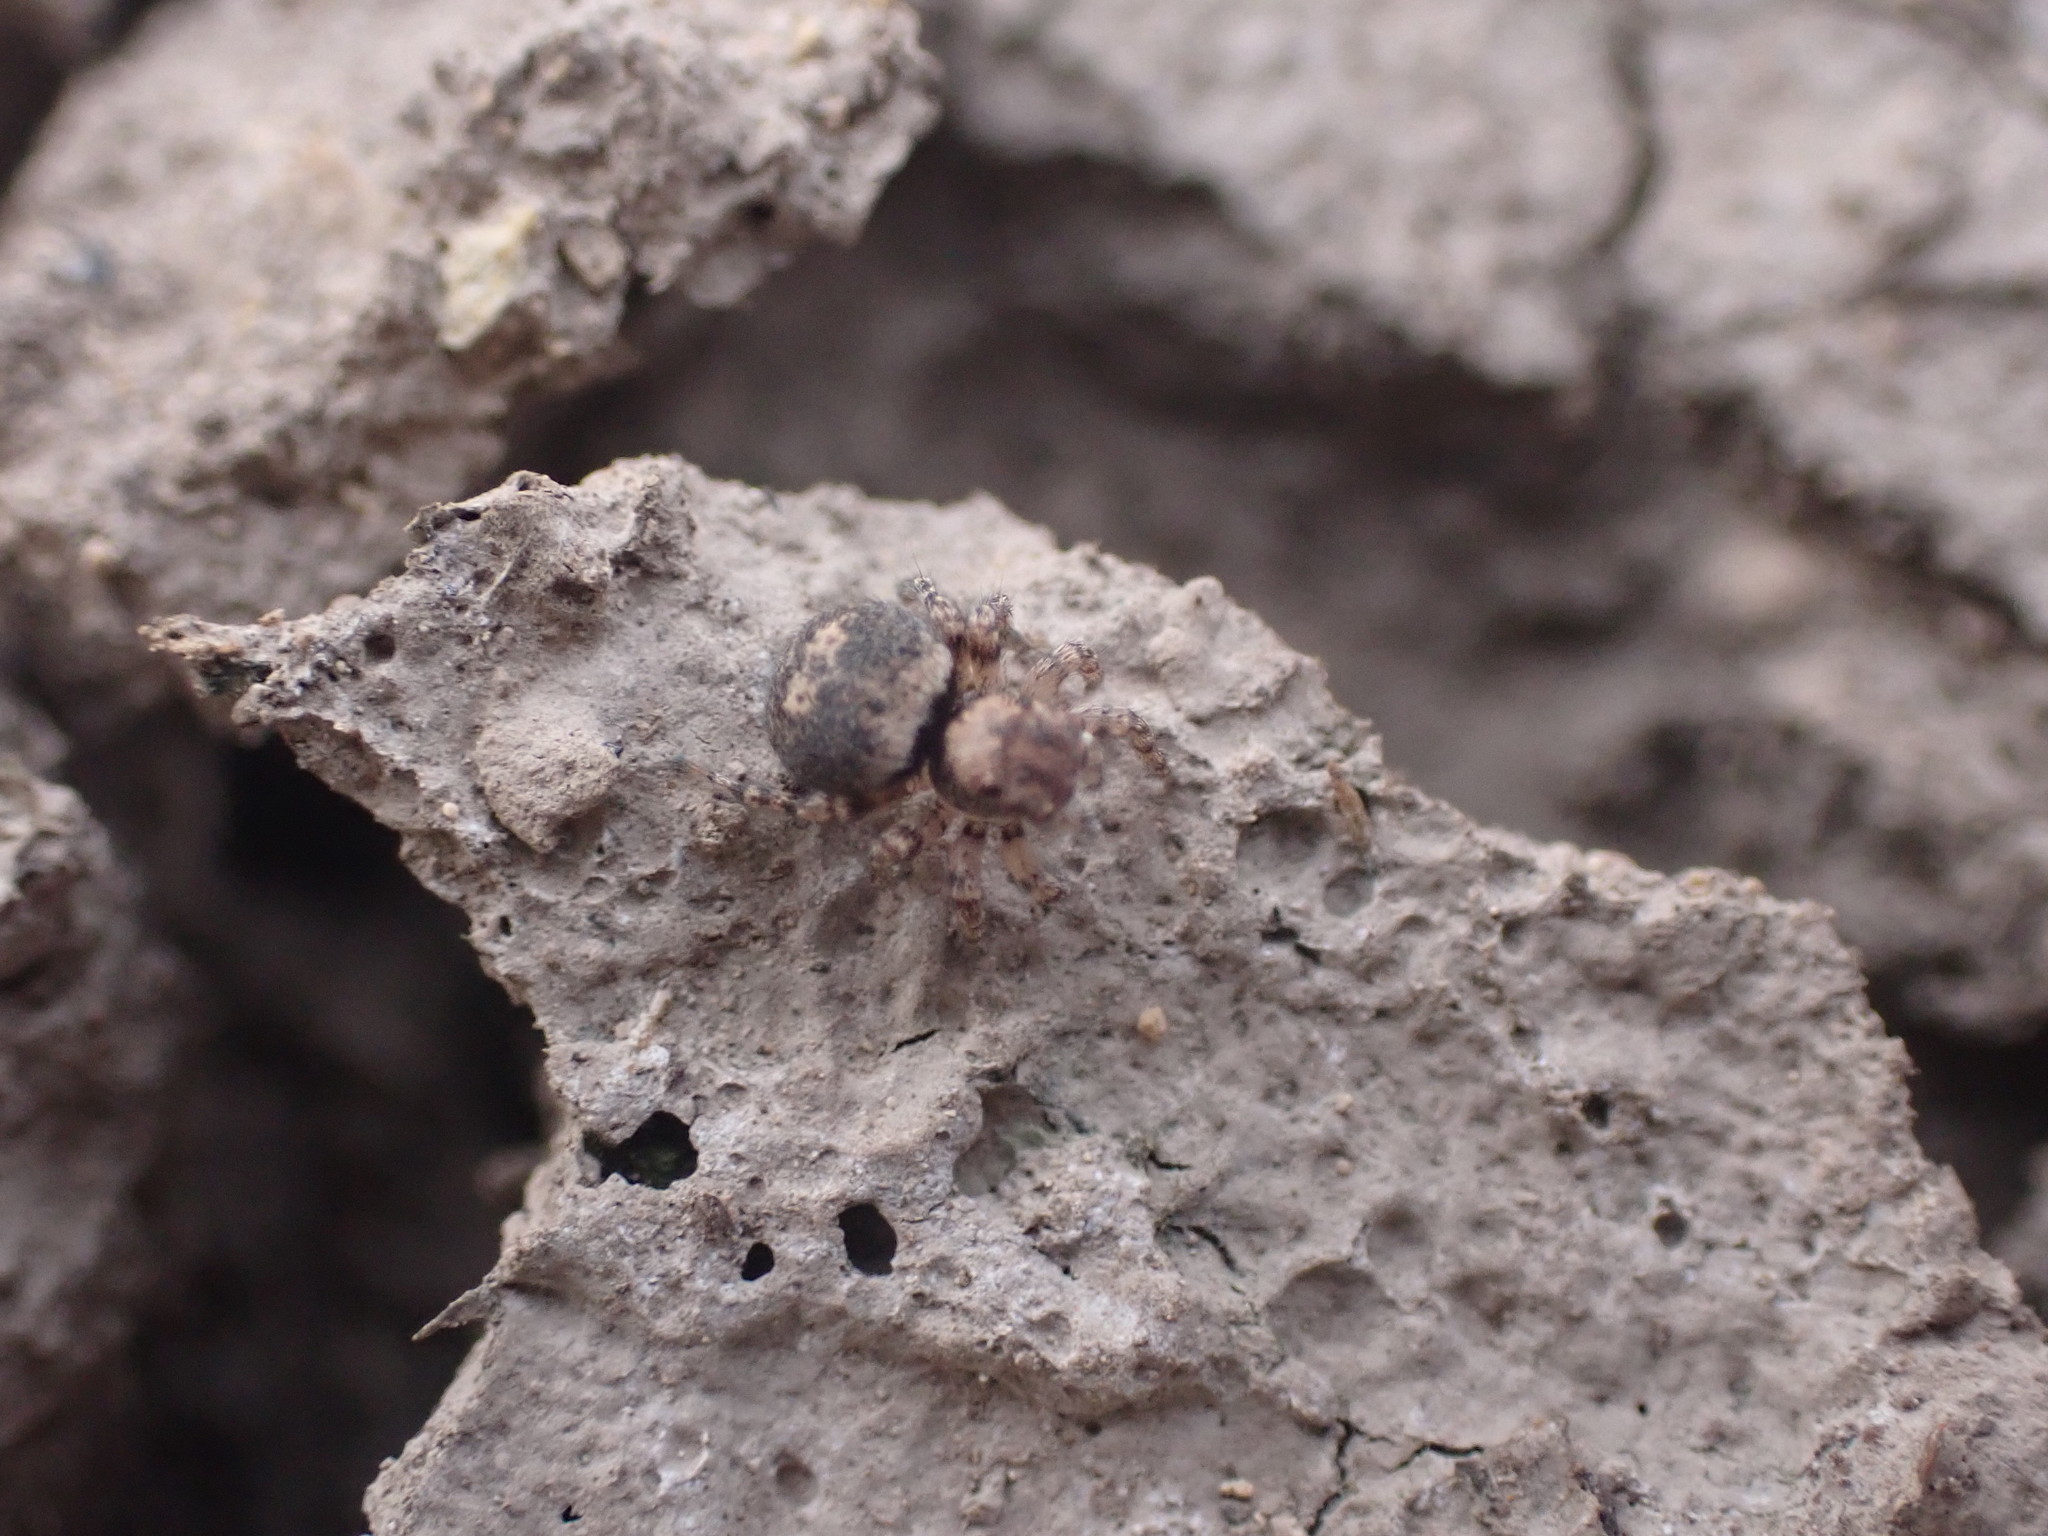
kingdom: Animalia
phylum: Arthropoda
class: Arachnida
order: Araneae
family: Salticidae
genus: Naphrys
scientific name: Naphrys acerba
